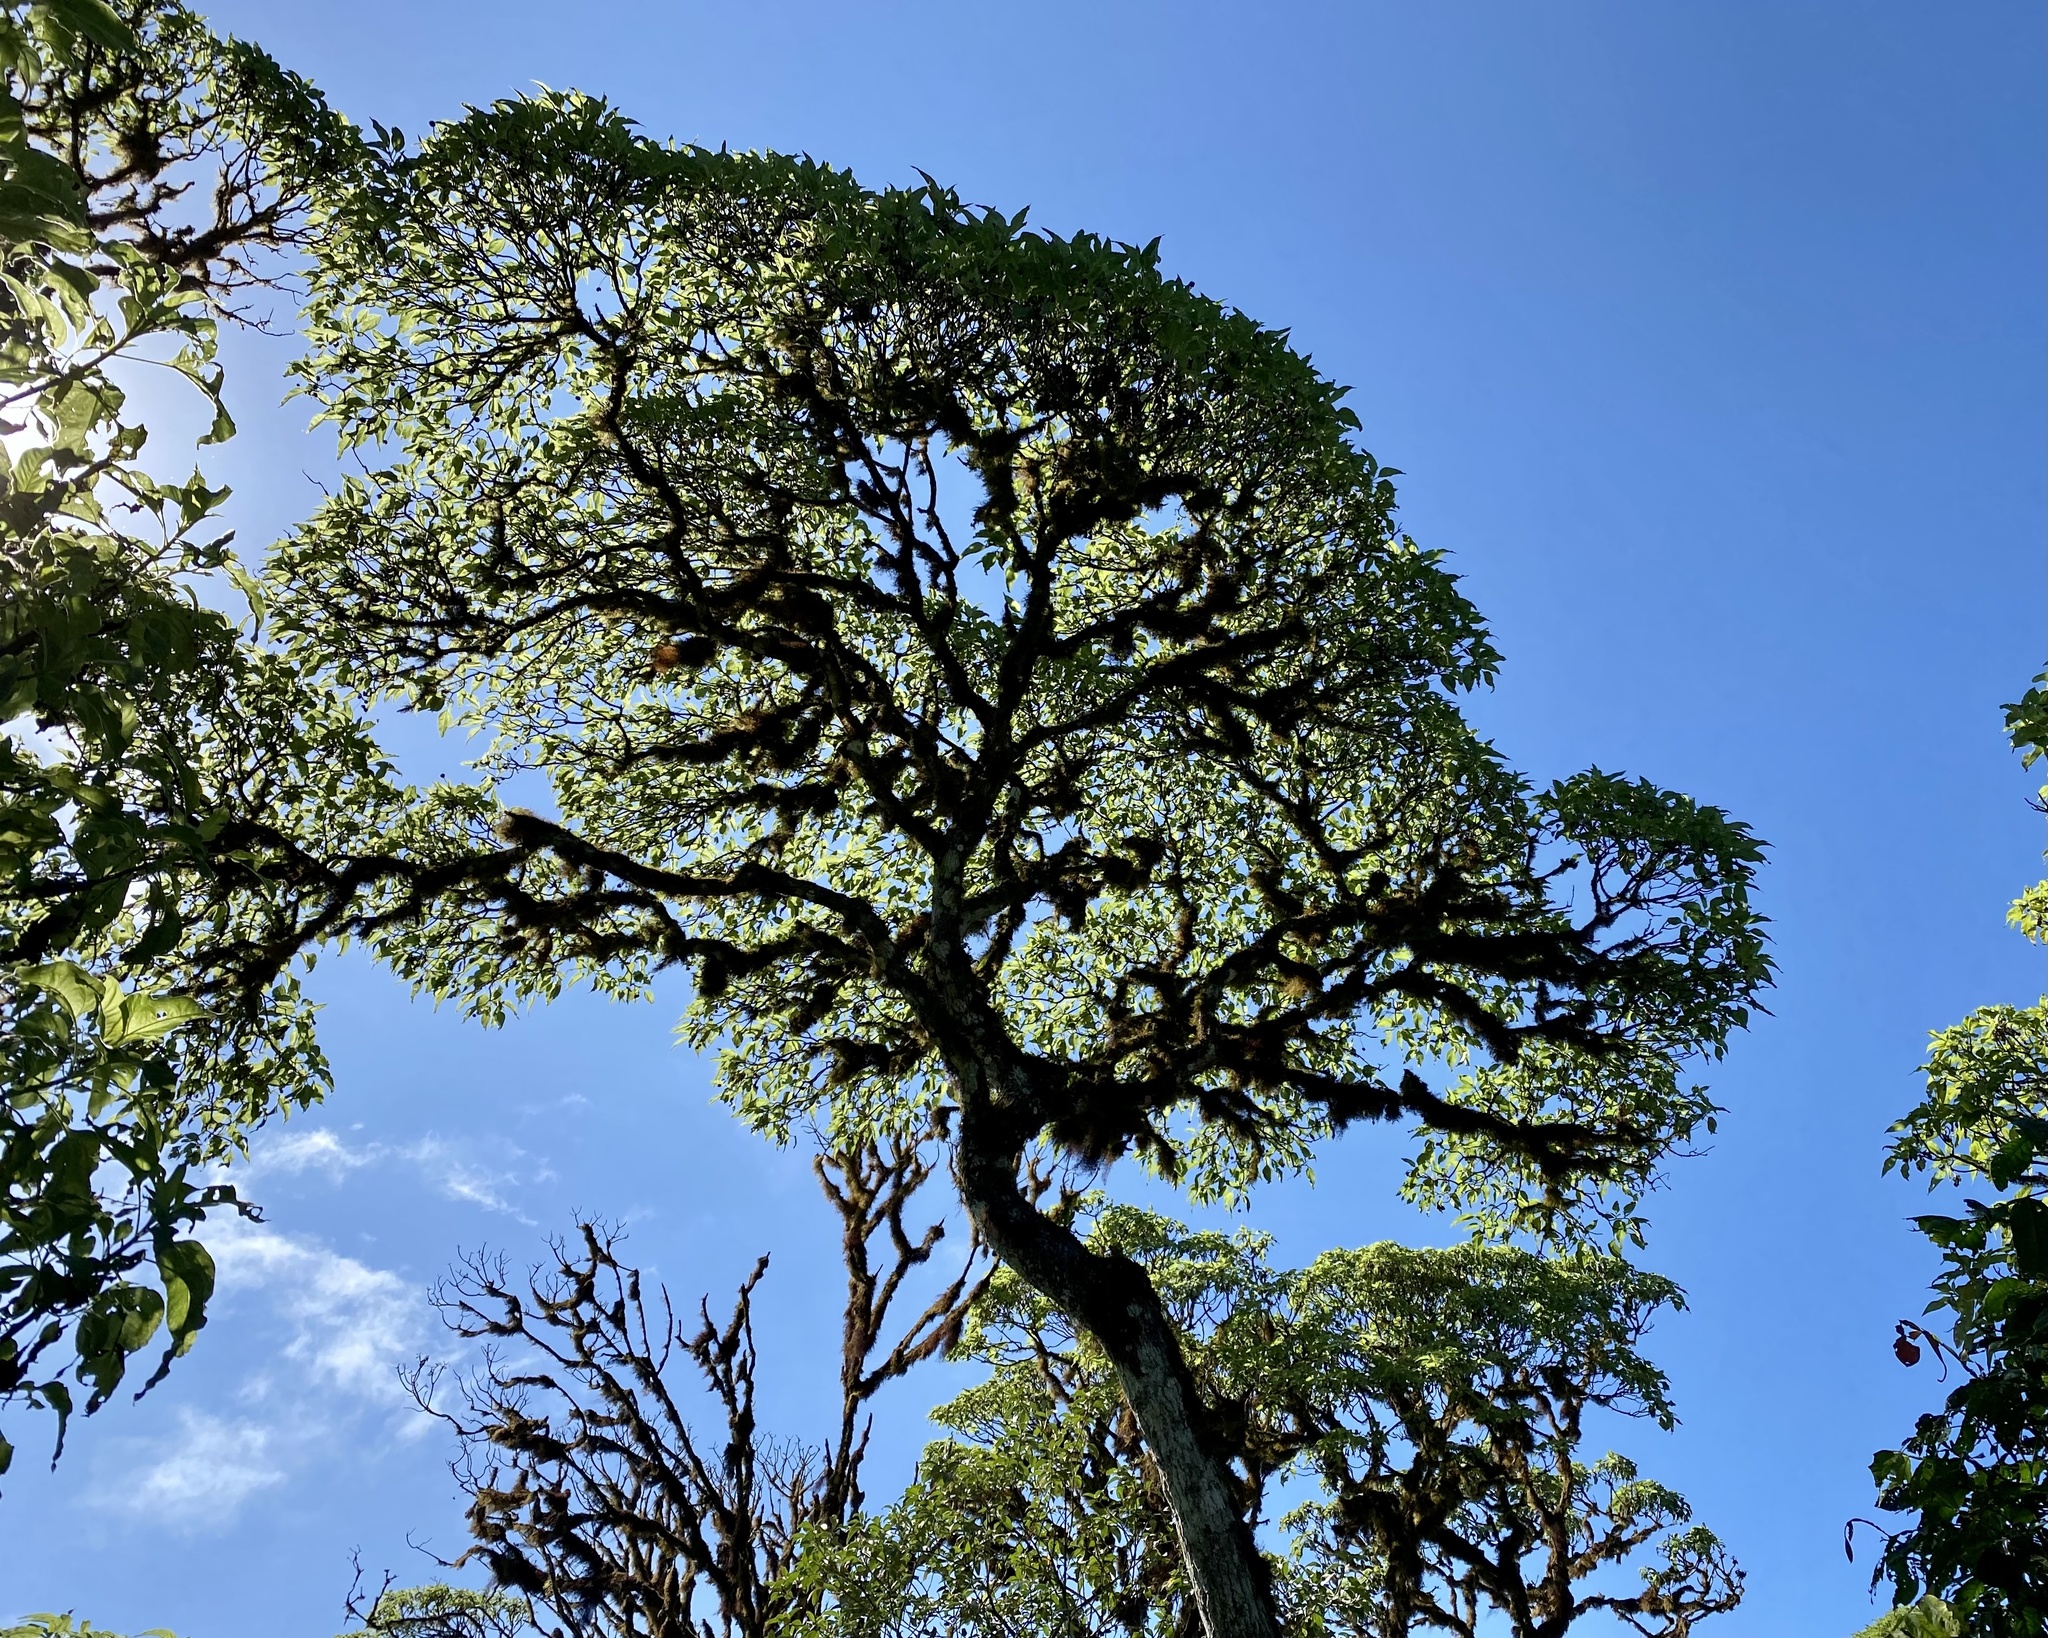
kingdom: Plantae
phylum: Tracheophyta
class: Magnoliopsida
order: Asterales
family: Asteraceae
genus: Scalesia
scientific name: Scalesia pedunculata
